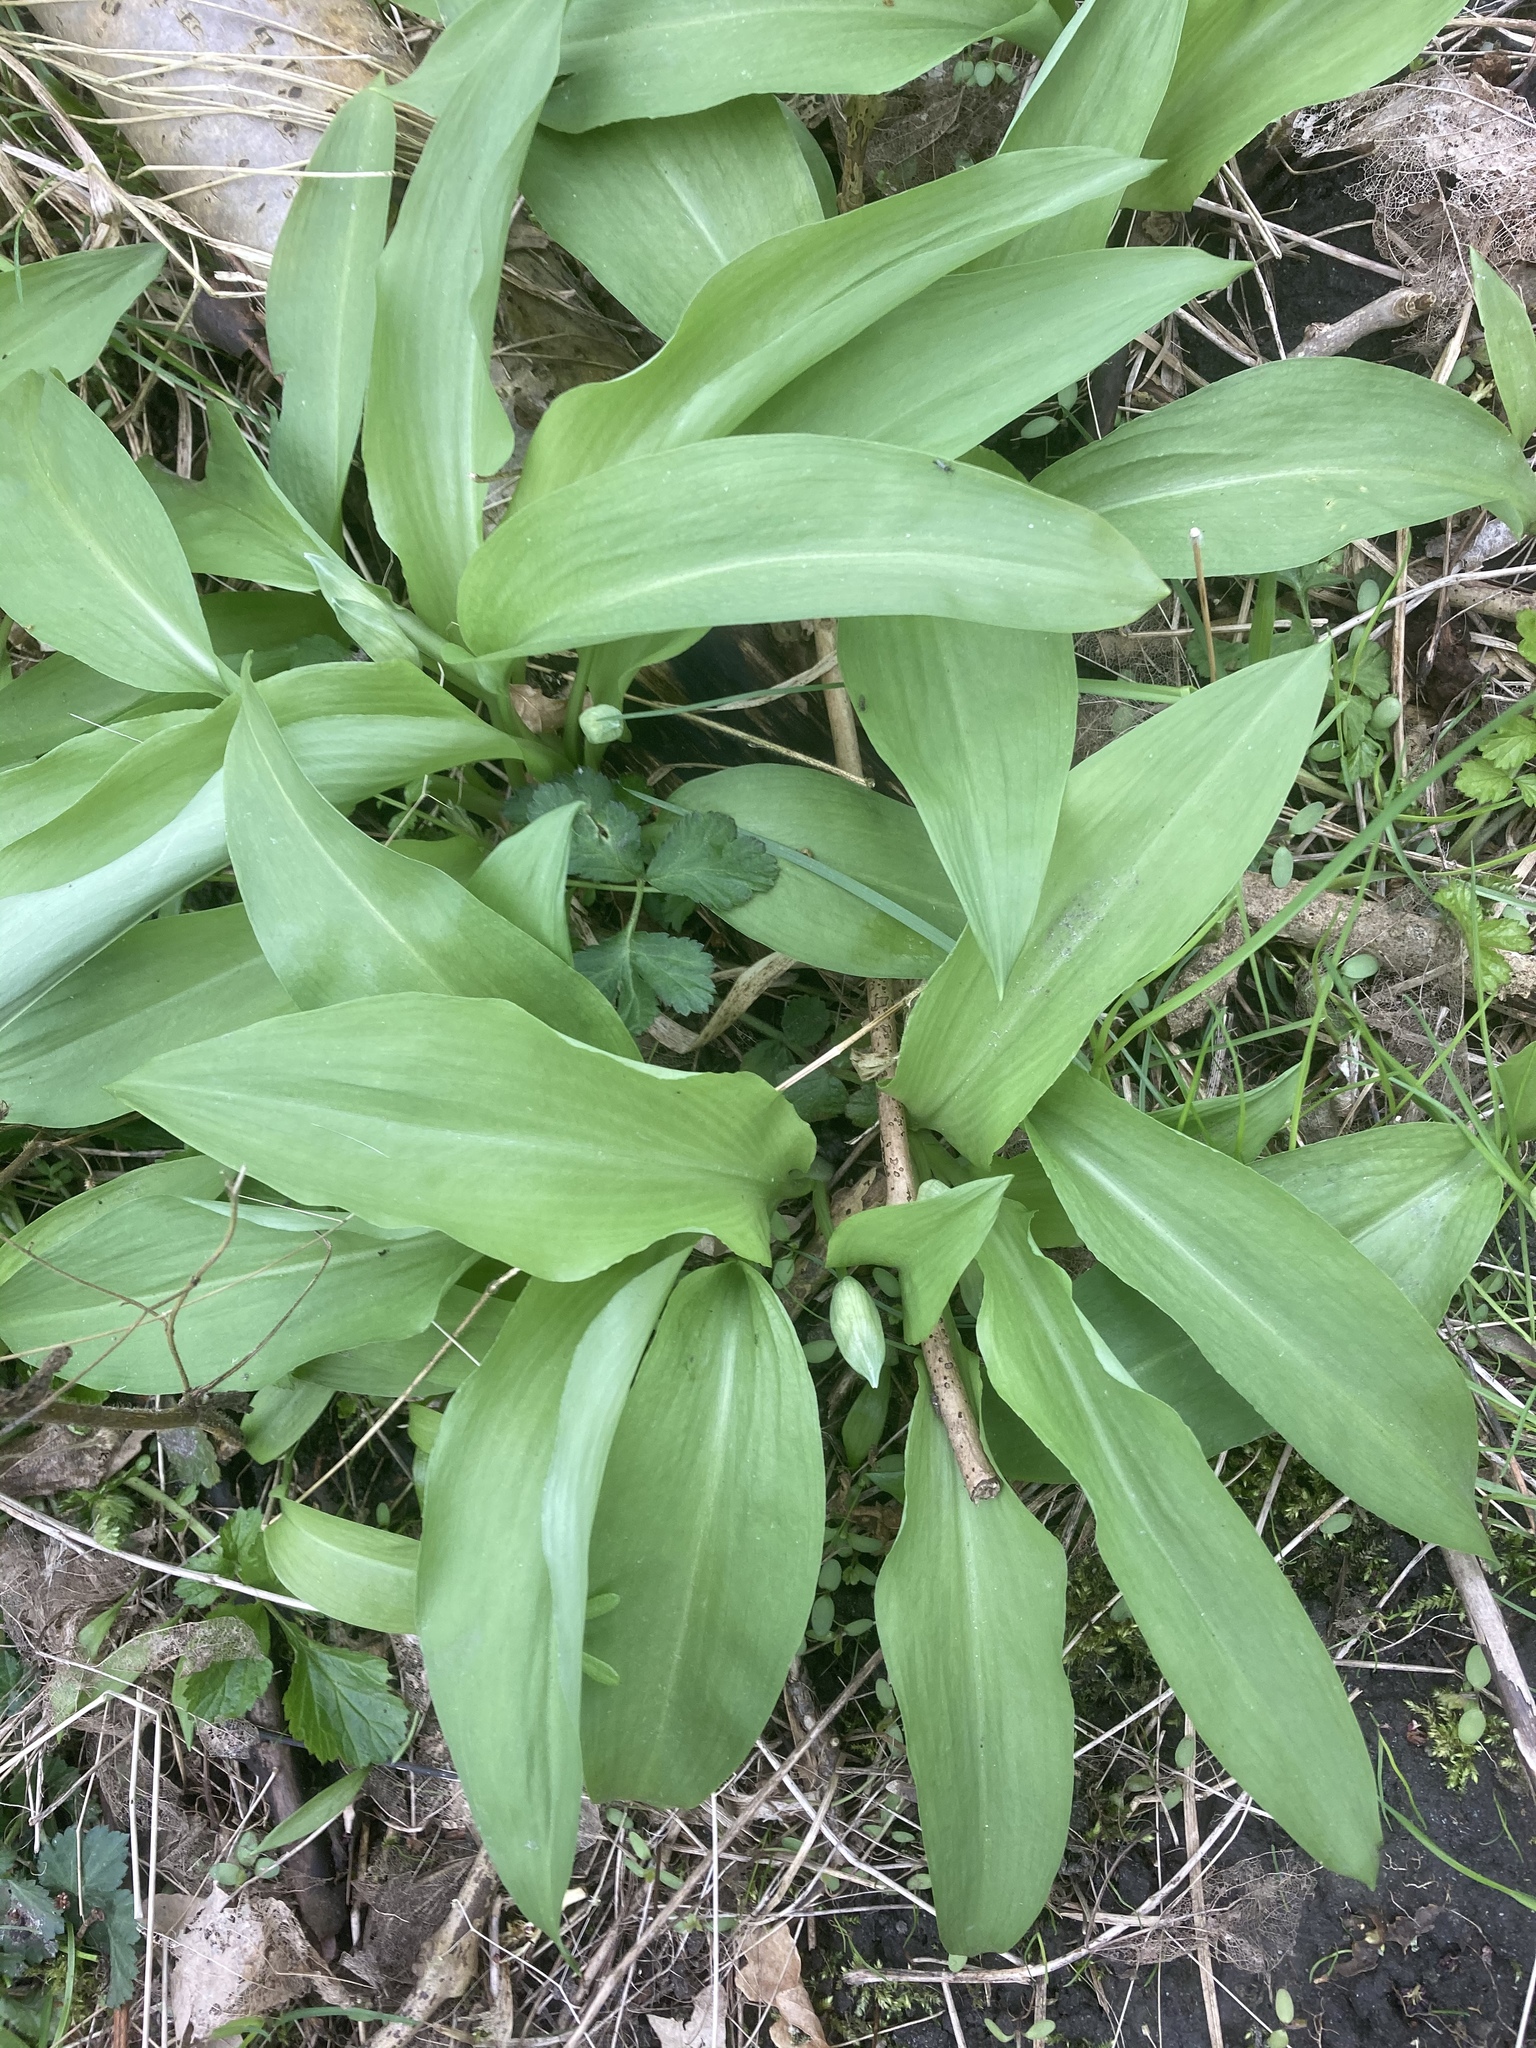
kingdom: Plantae
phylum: Tracheophyta
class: Liliopsida
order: Asparagales
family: Amaryllidaceae
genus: Allium
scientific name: Allium ursinum
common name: Ramsons
